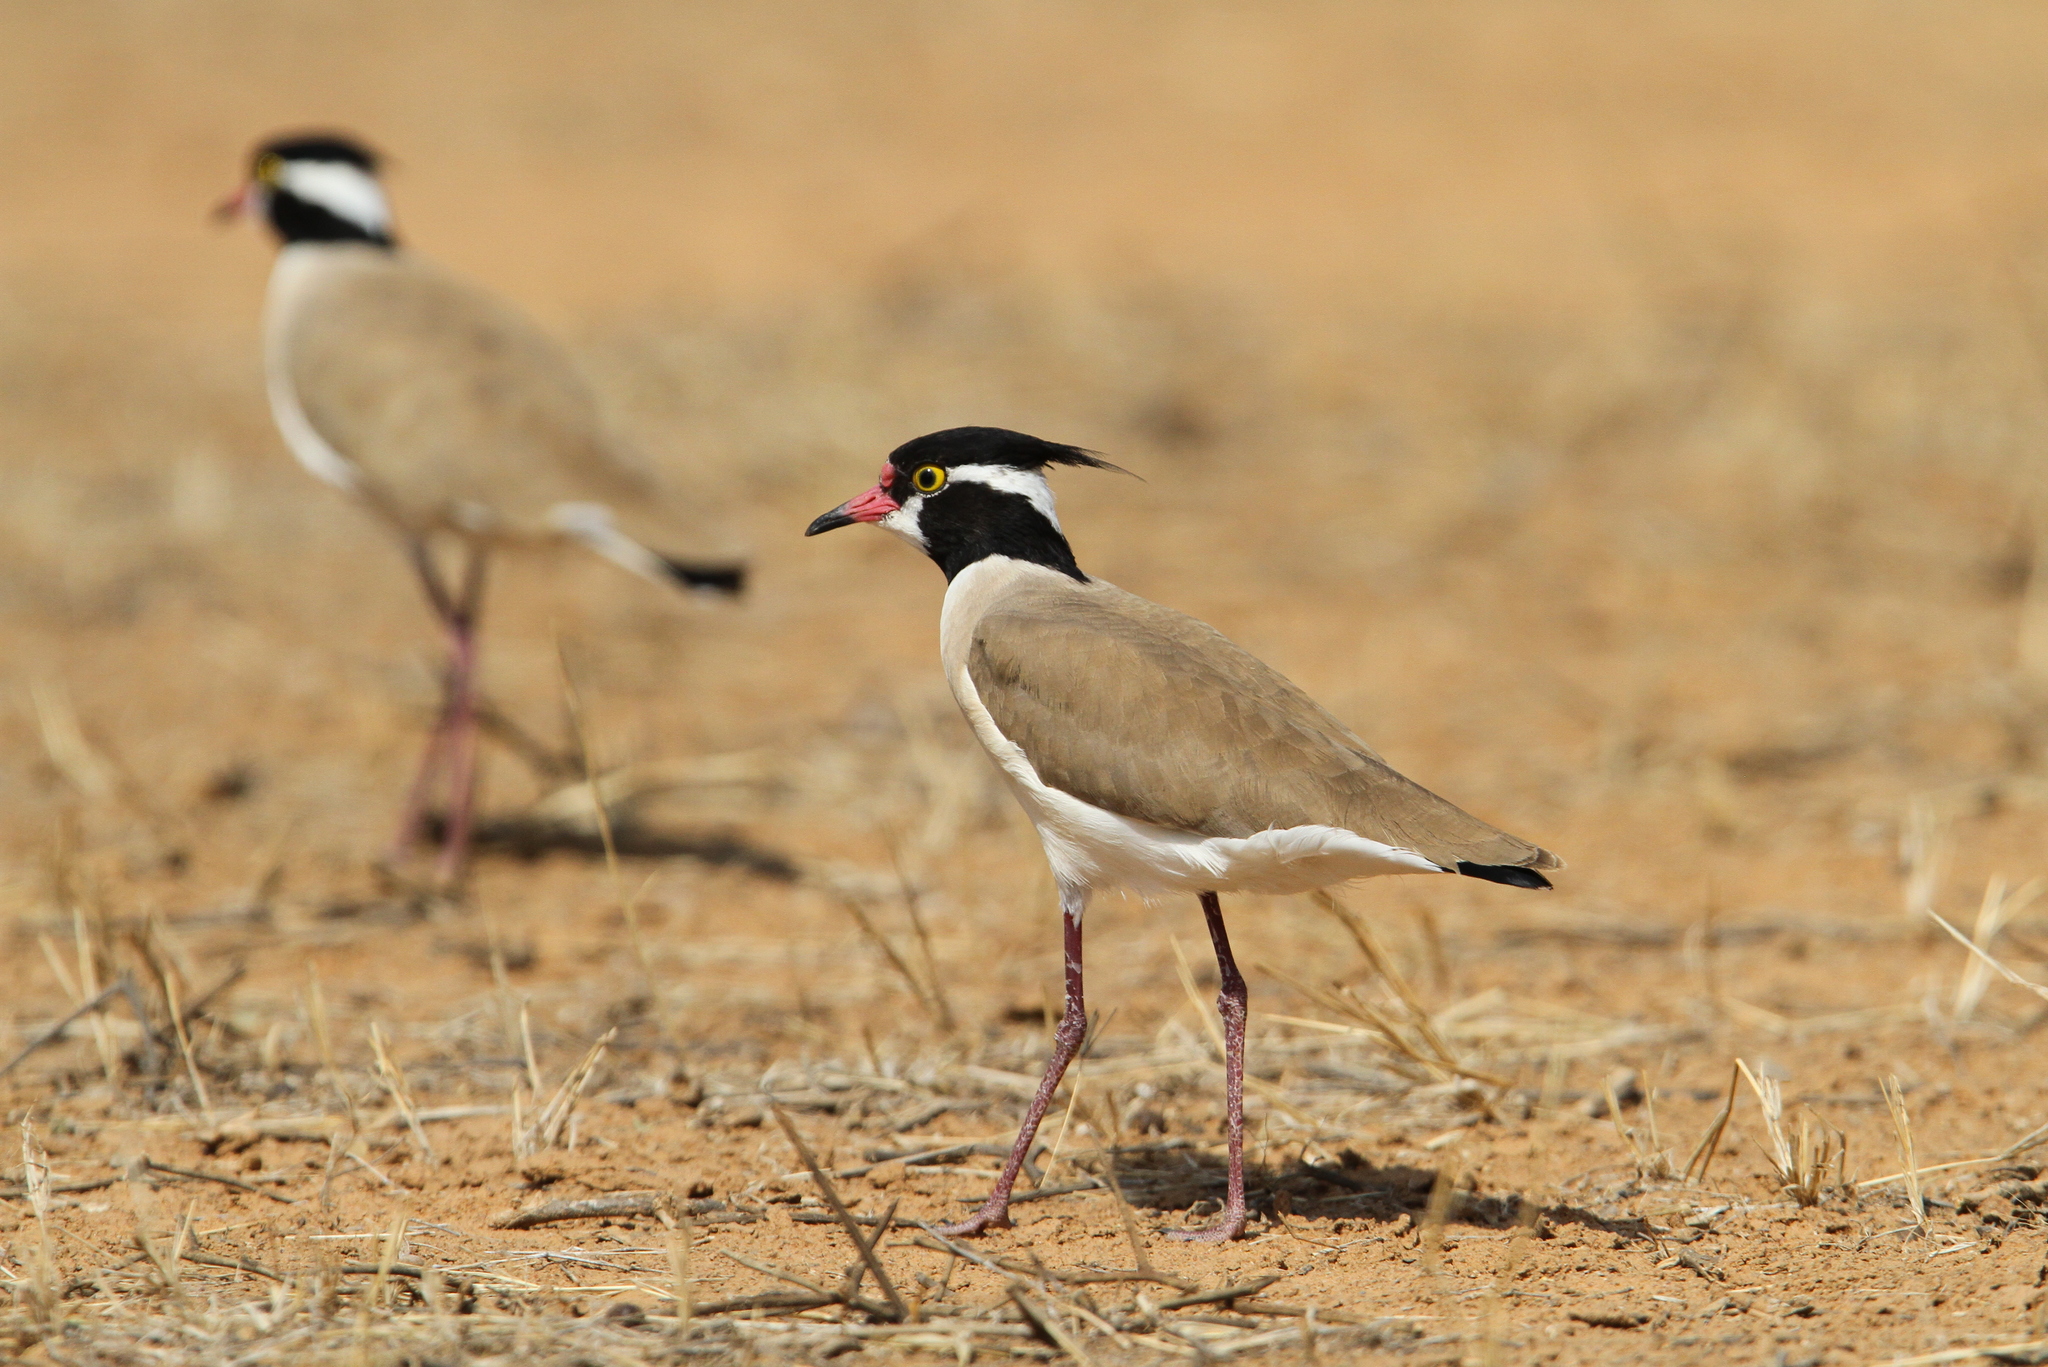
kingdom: Animalia
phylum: Chordata
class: Aves
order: Charadriiformes
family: Charadriidae
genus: Vanellus
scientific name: Vanellus tectus
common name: Black-headed lapwing
